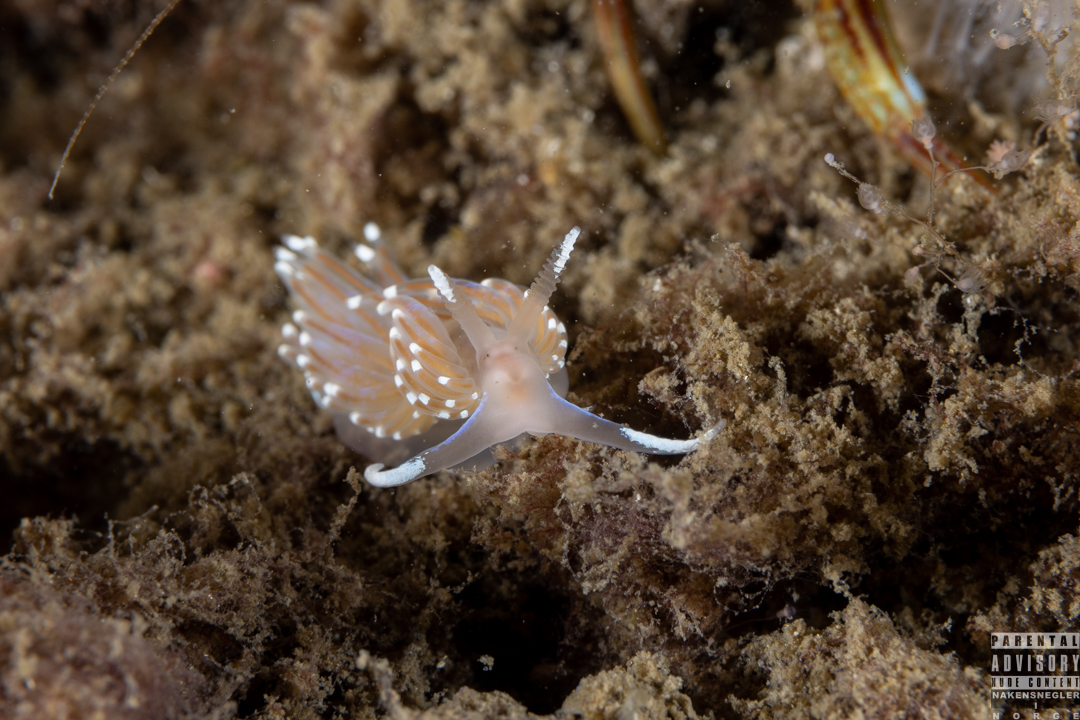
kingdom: Animalia
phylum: Mollusca
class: Gastropoda
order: Nudibranchia
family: Facelinidae
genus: Facelina
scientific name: Facelina bostoniensis
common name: Boston facelina
